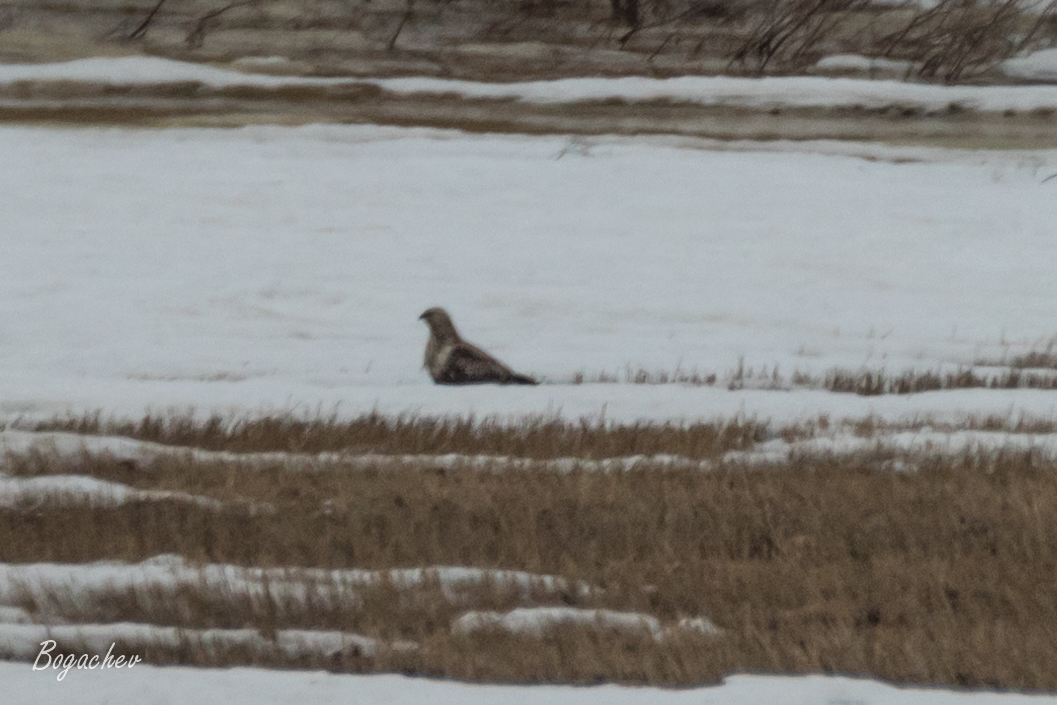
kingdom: Animalia
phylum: Chordata
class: Aves
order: Accipitriformes
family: Accipitridae
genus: Buteo
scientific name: Buteo lagopus
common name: Rough-legged buzzard
